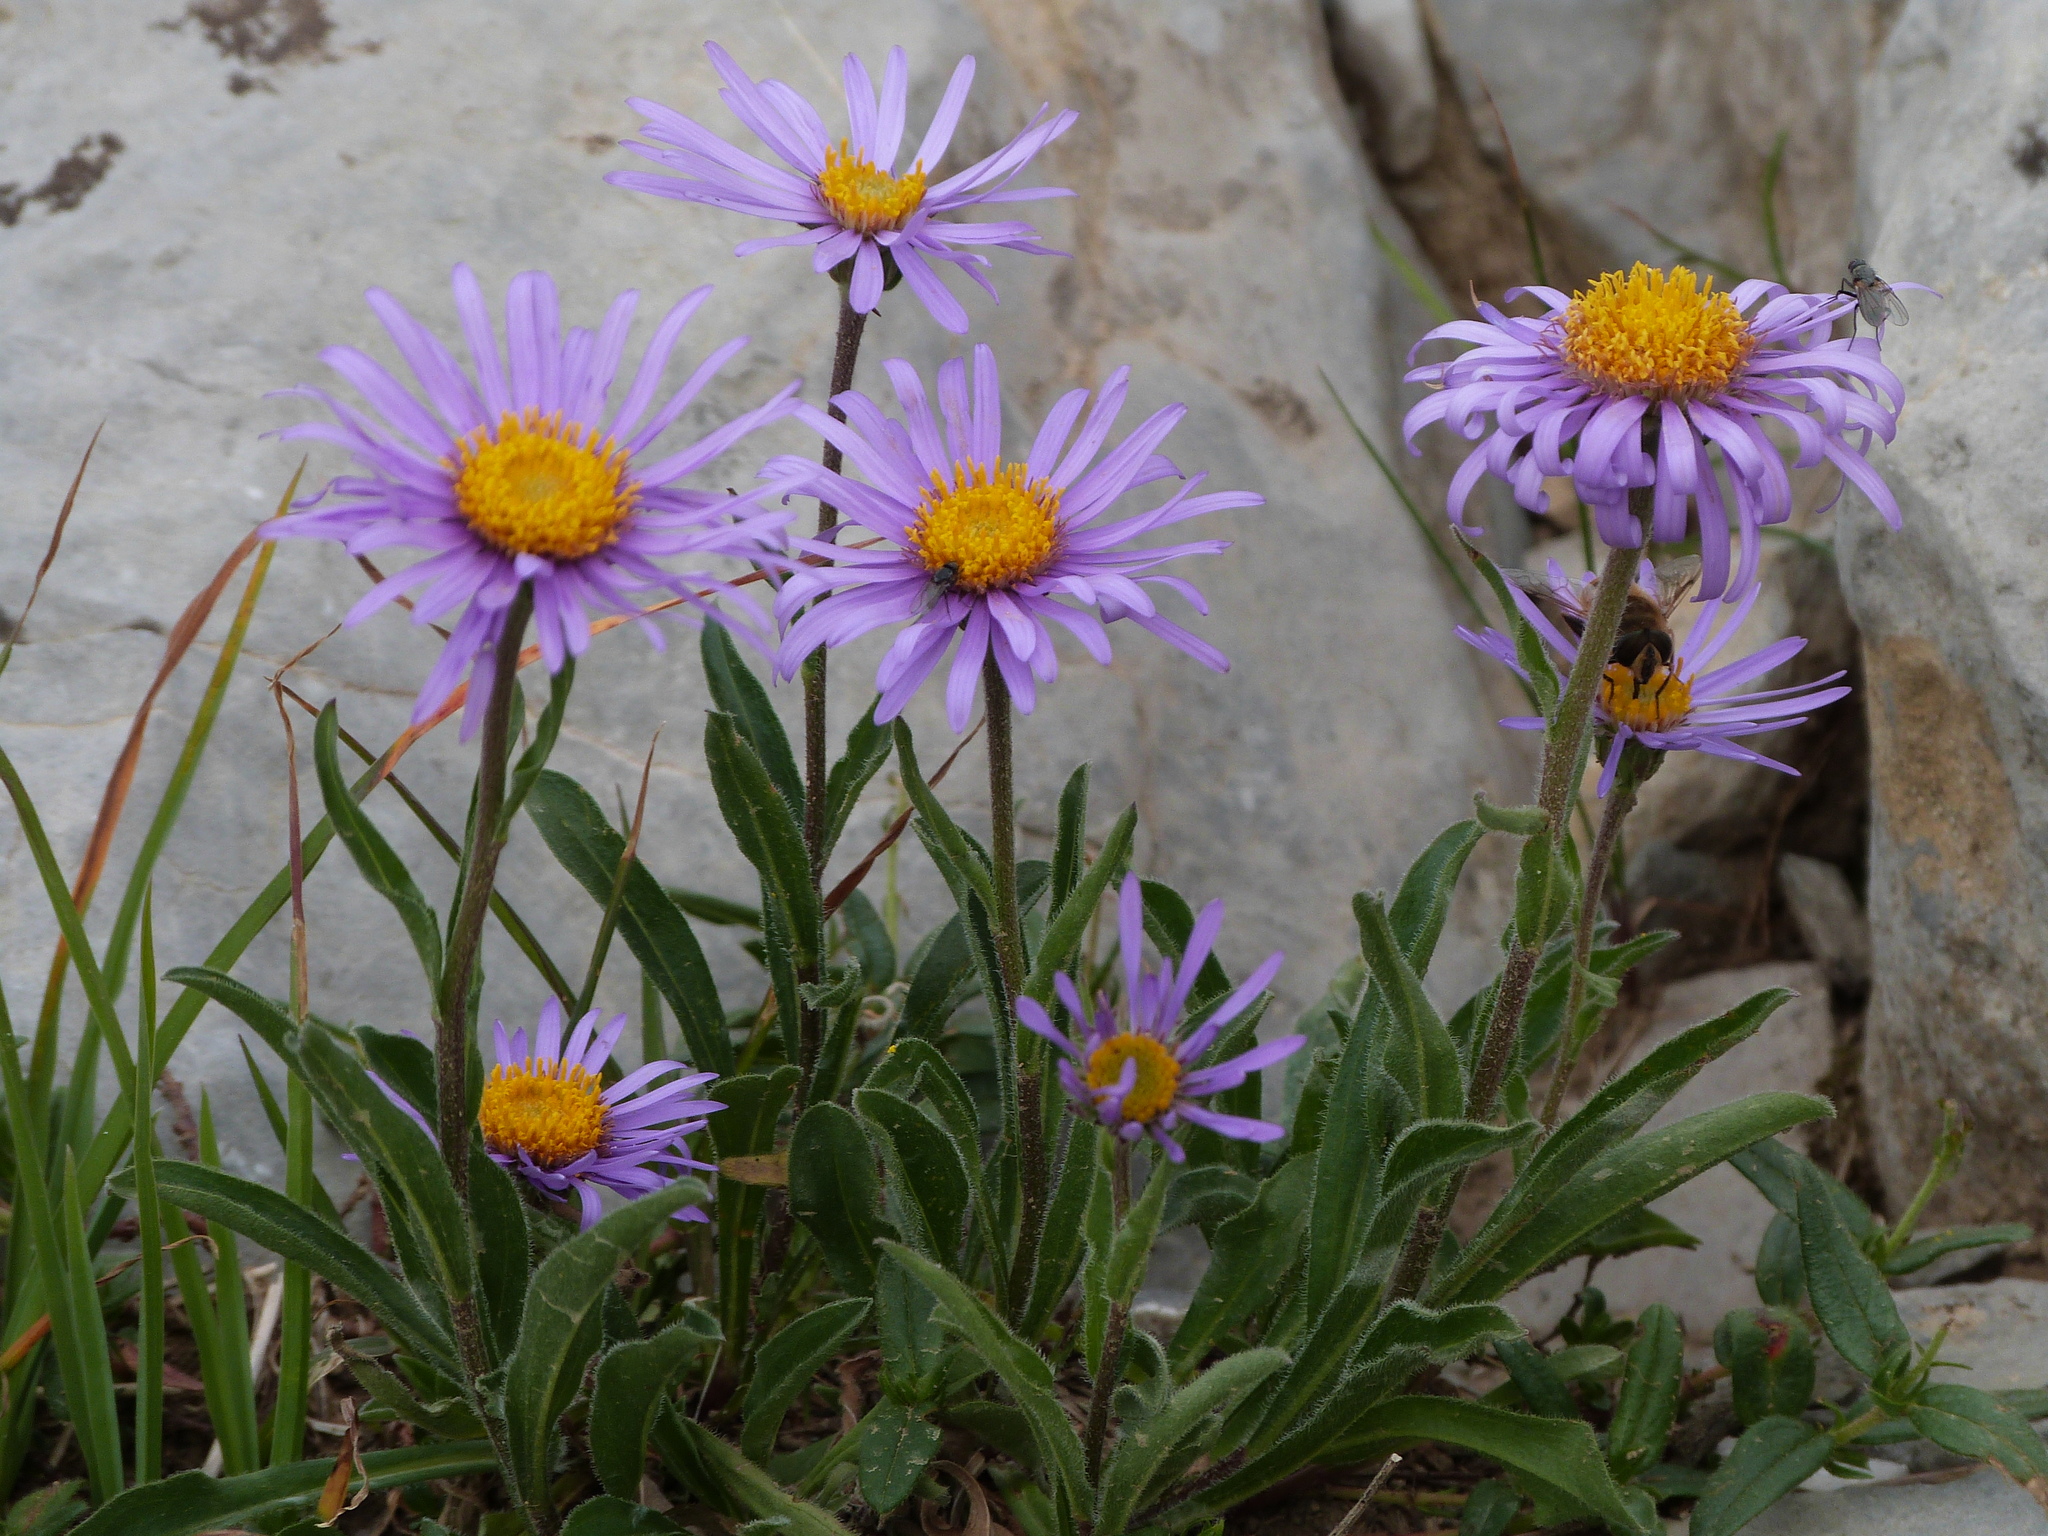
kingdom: Plantae
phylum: Tracheophyta
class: Magnoliopsida
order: Asterales
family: Asteraceae
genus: Aster
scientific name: Aster alpinus
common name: Alpine aster
